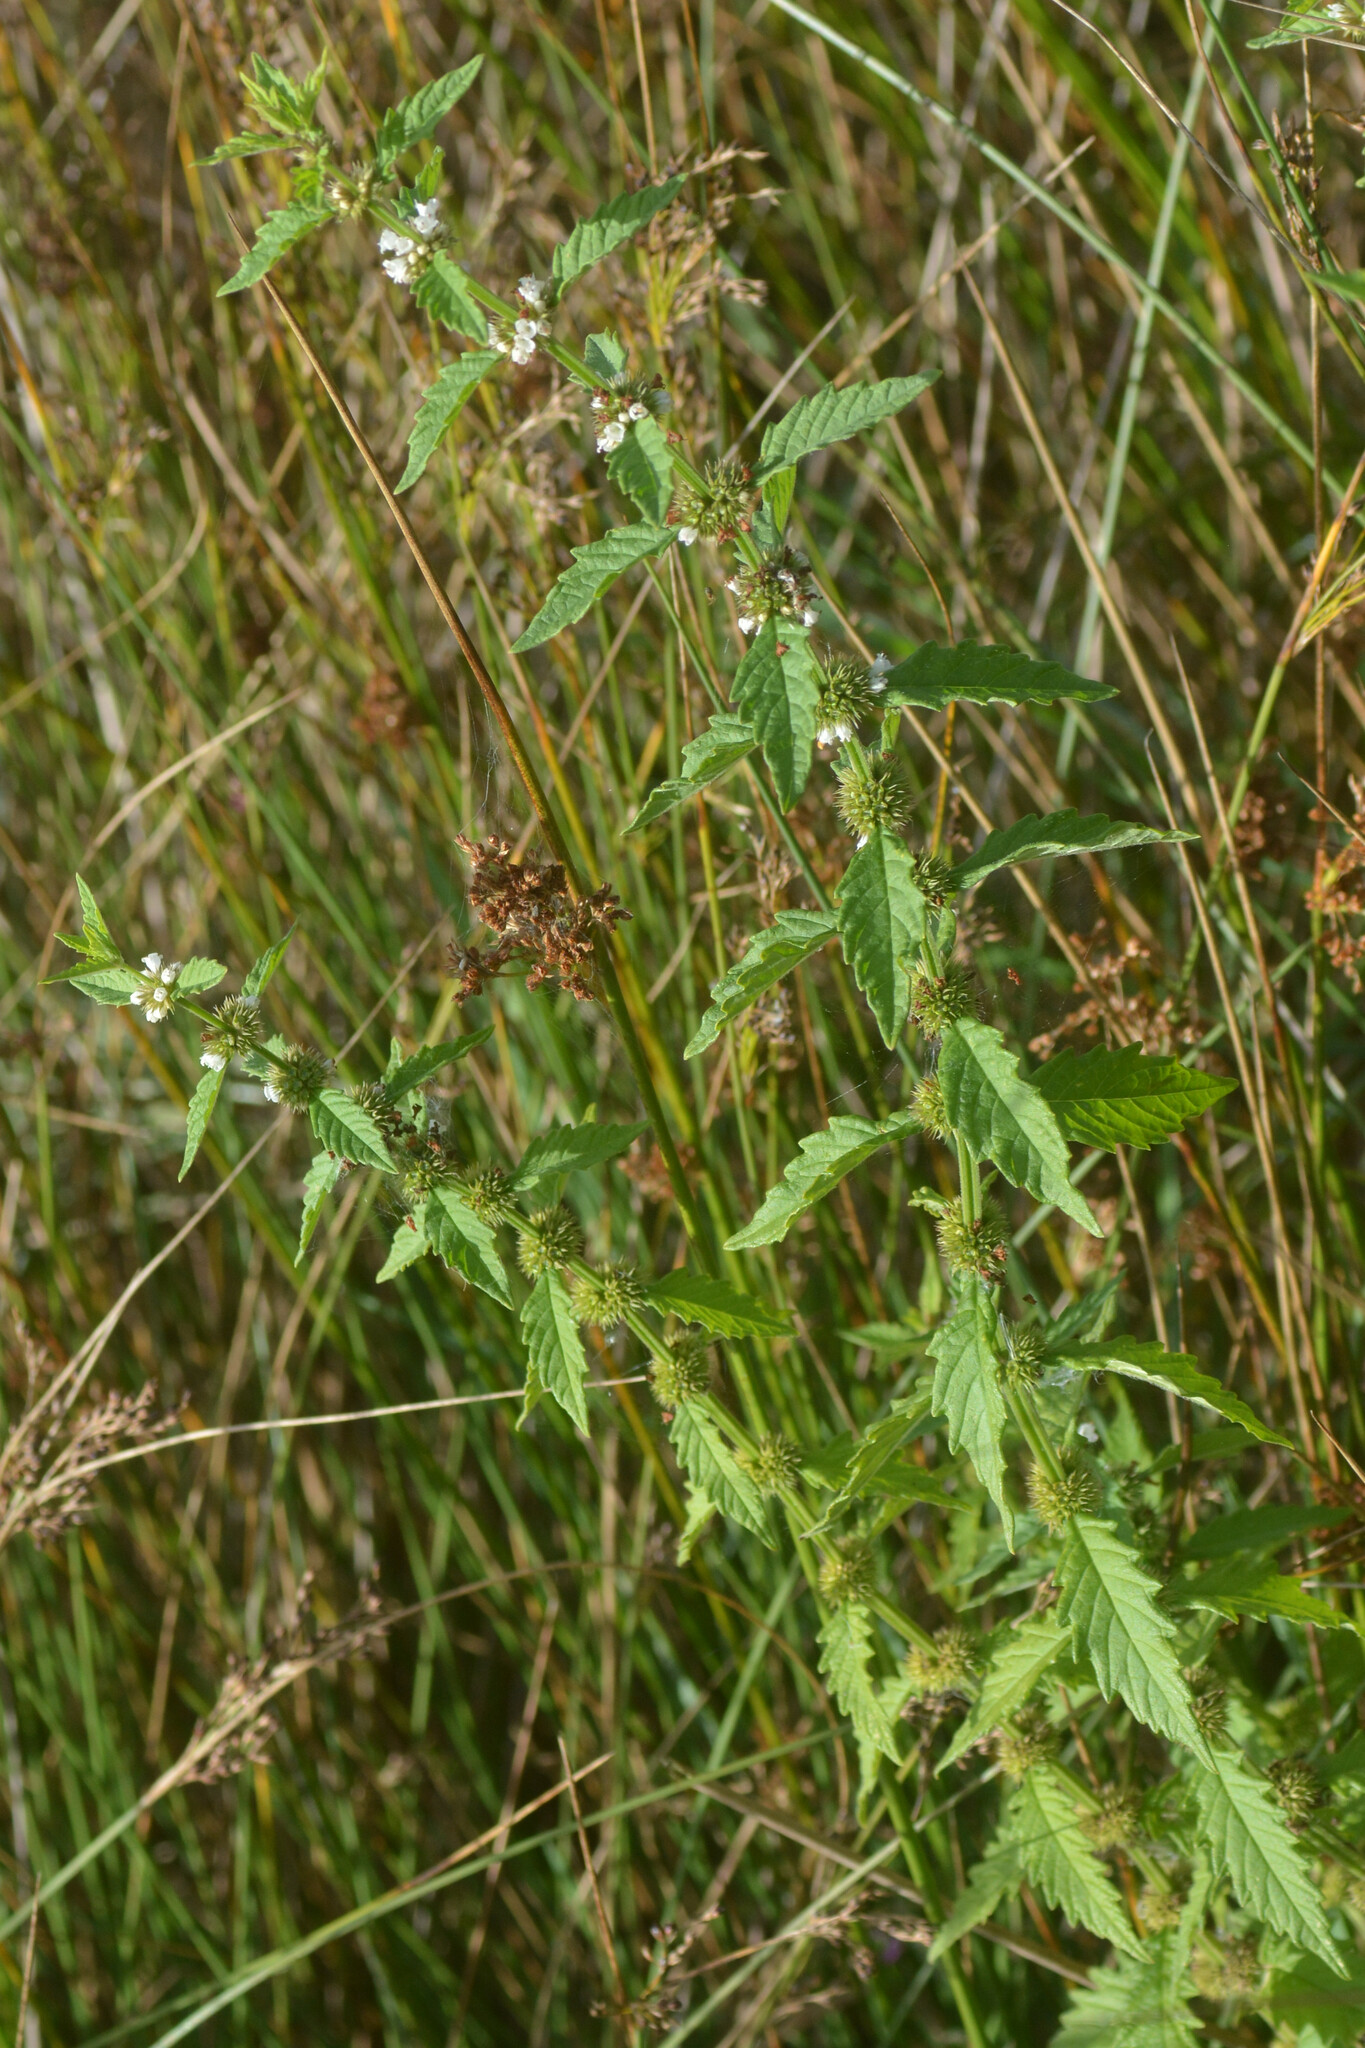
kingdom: Plantae
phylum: Tracheophyta
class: Magnoliopsida
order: Lamiales
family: Lamiaceae
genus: Lycopus
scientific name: Lycopus europaeus
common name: European bugleweed
